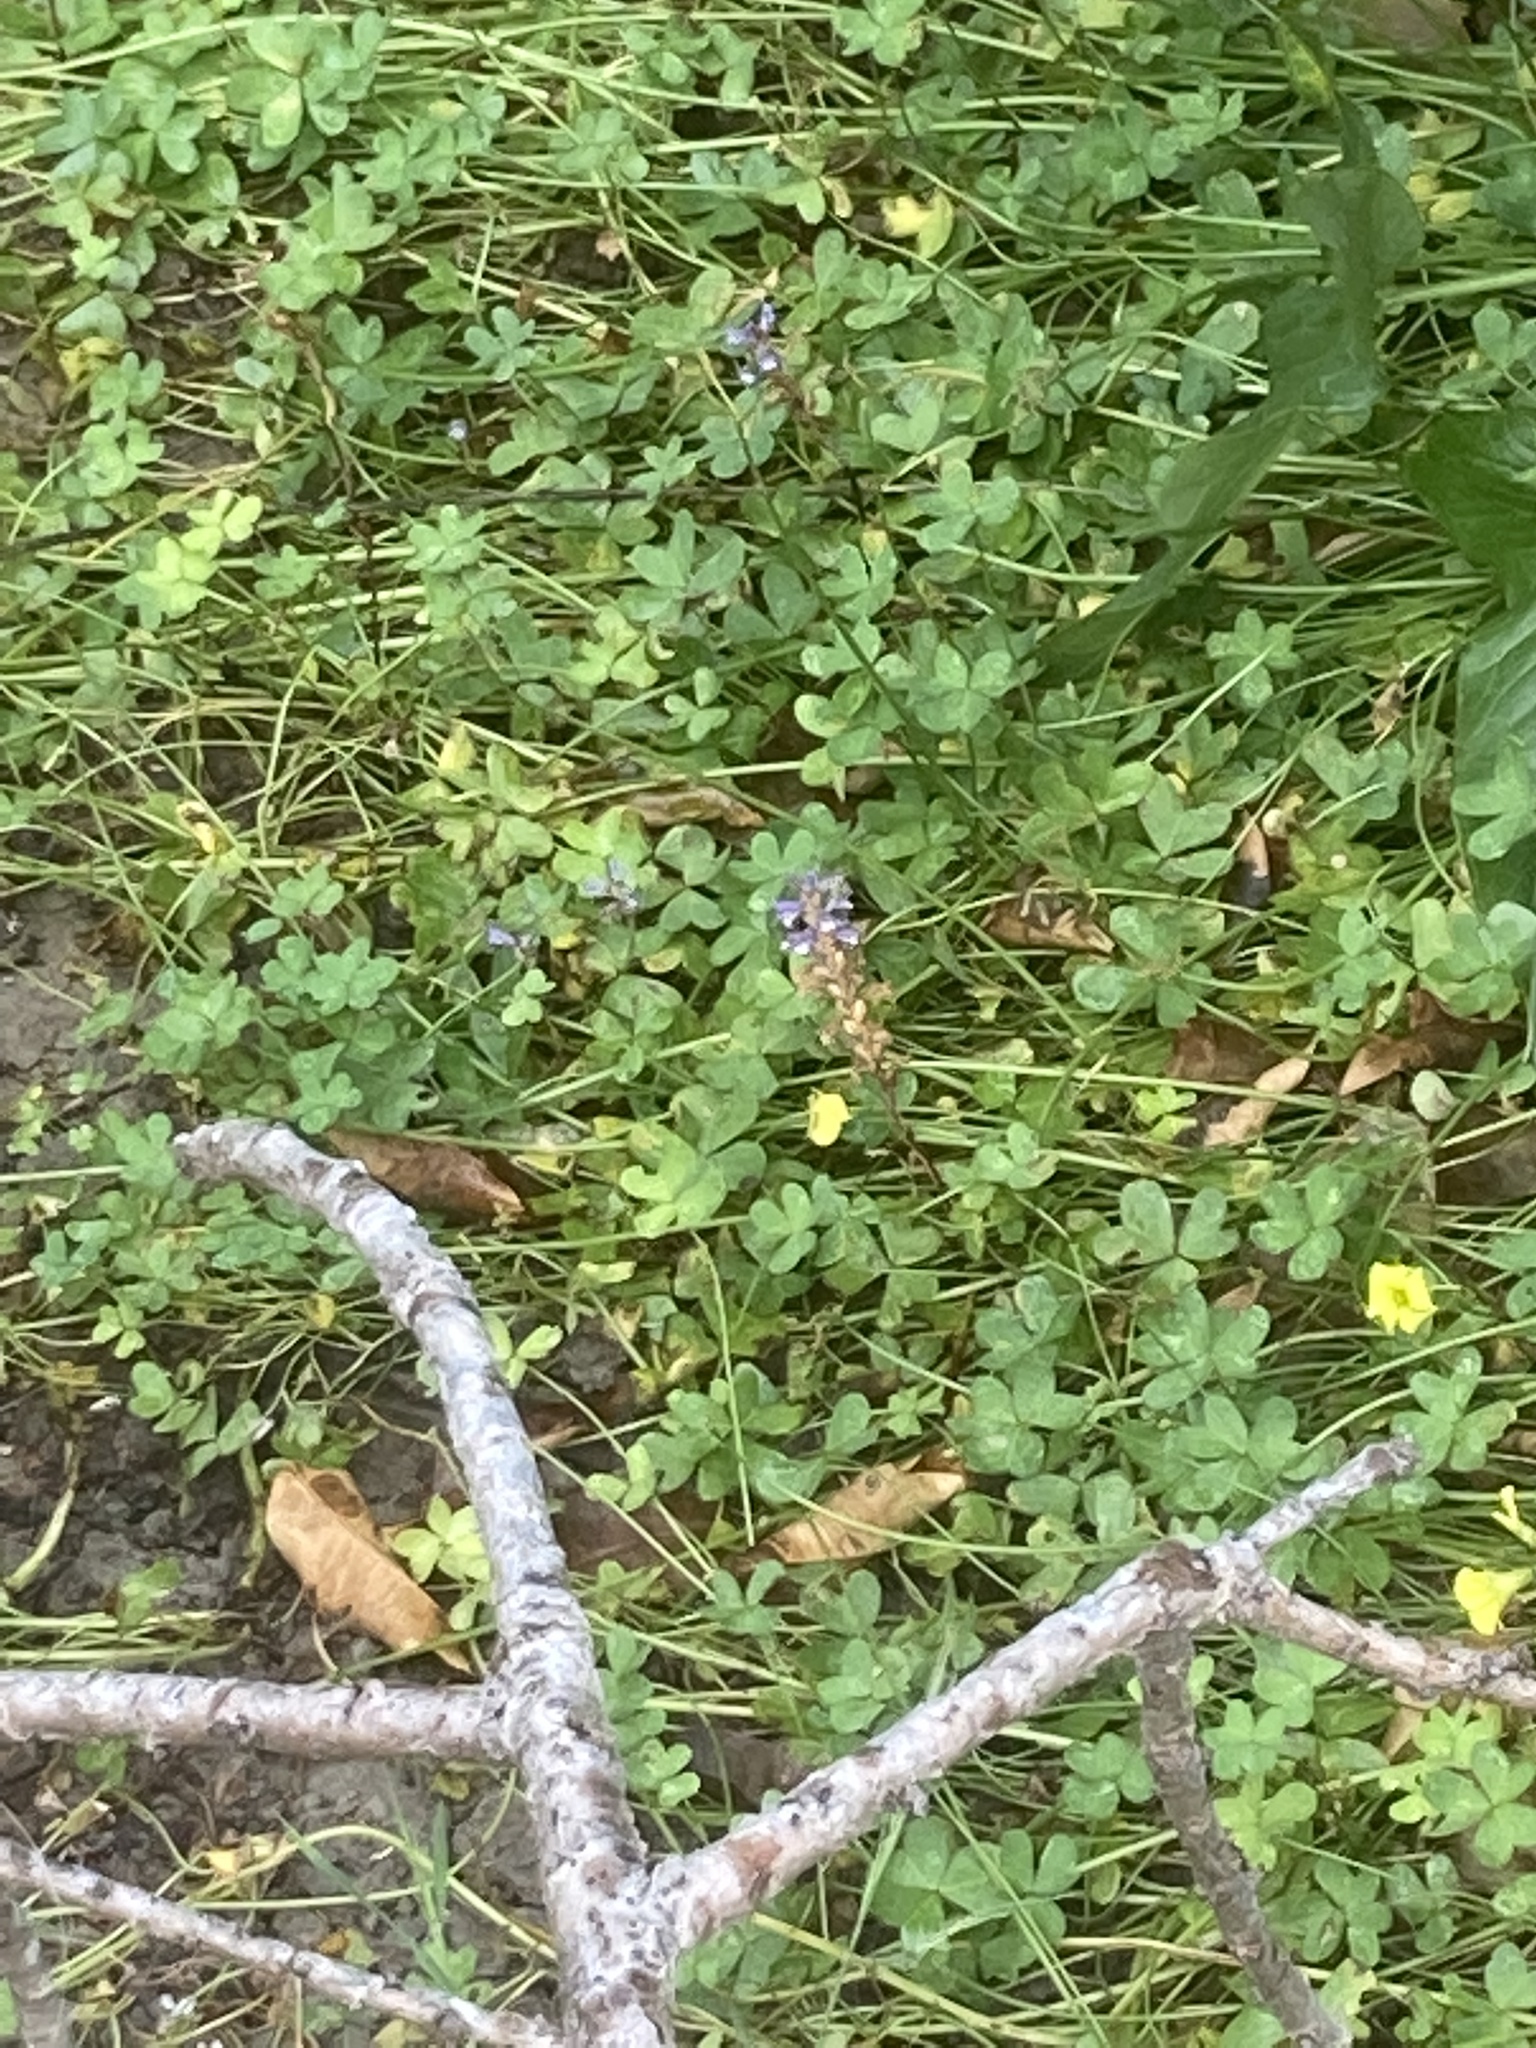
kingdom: Plantae
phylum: Tracheophyta
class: Magnoliopsida
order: Oxalidales
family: Oxalidaceae
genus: Oxalis
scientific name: Oxalis pes-caprae
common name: Bermuda-buttercup
